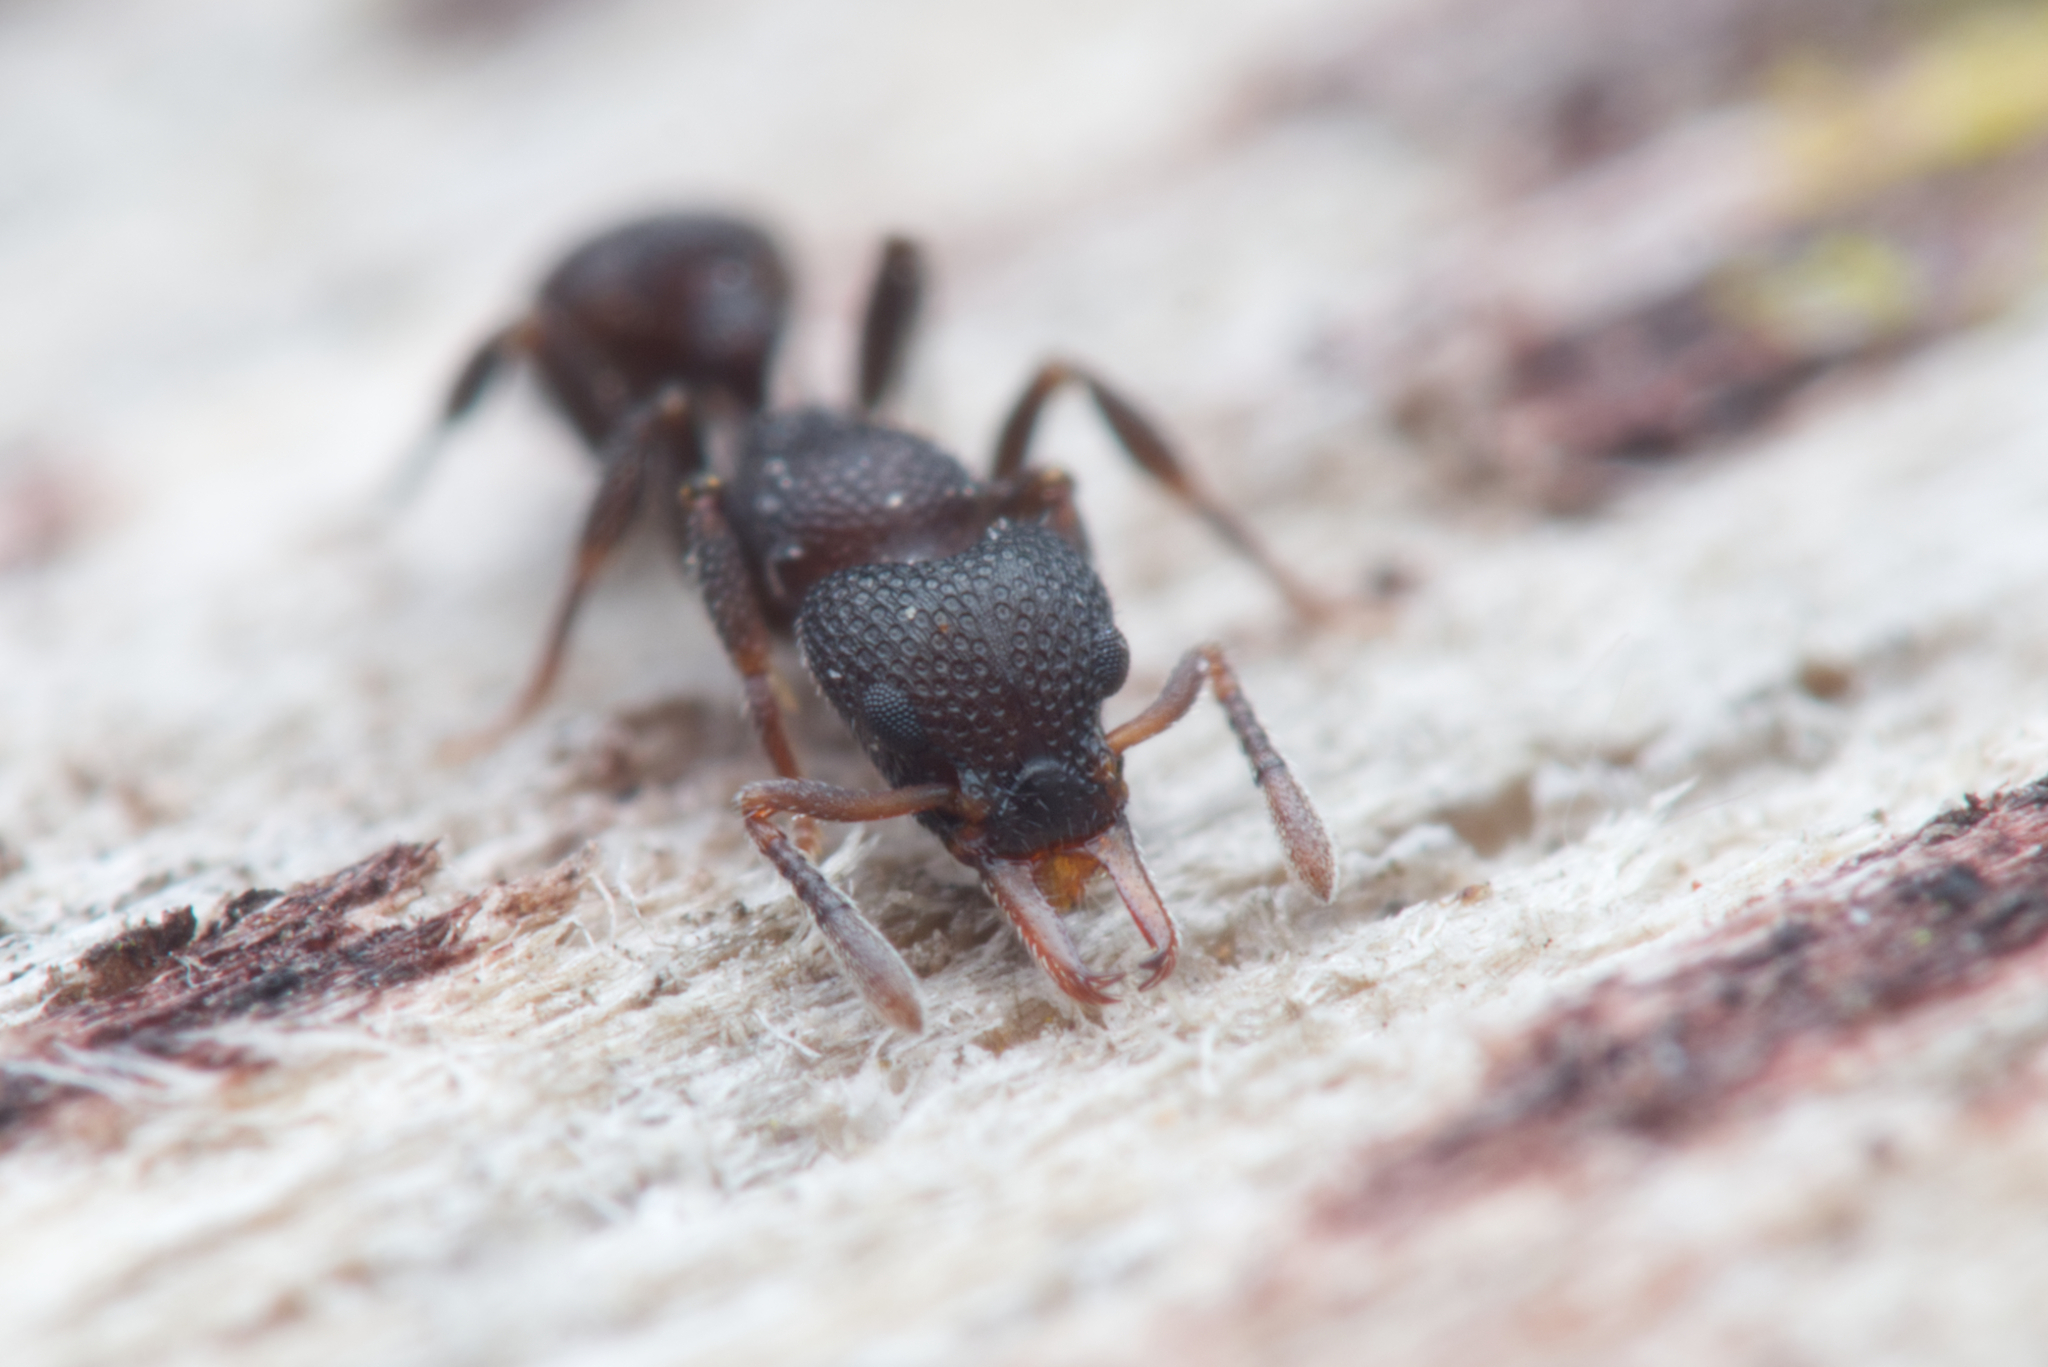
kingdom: Animalia
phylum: Arthropoda
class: Insecta
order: Hymenoptera
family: Formicidae
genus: Epopostruma
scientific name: Epopostruma quadrispinosa
